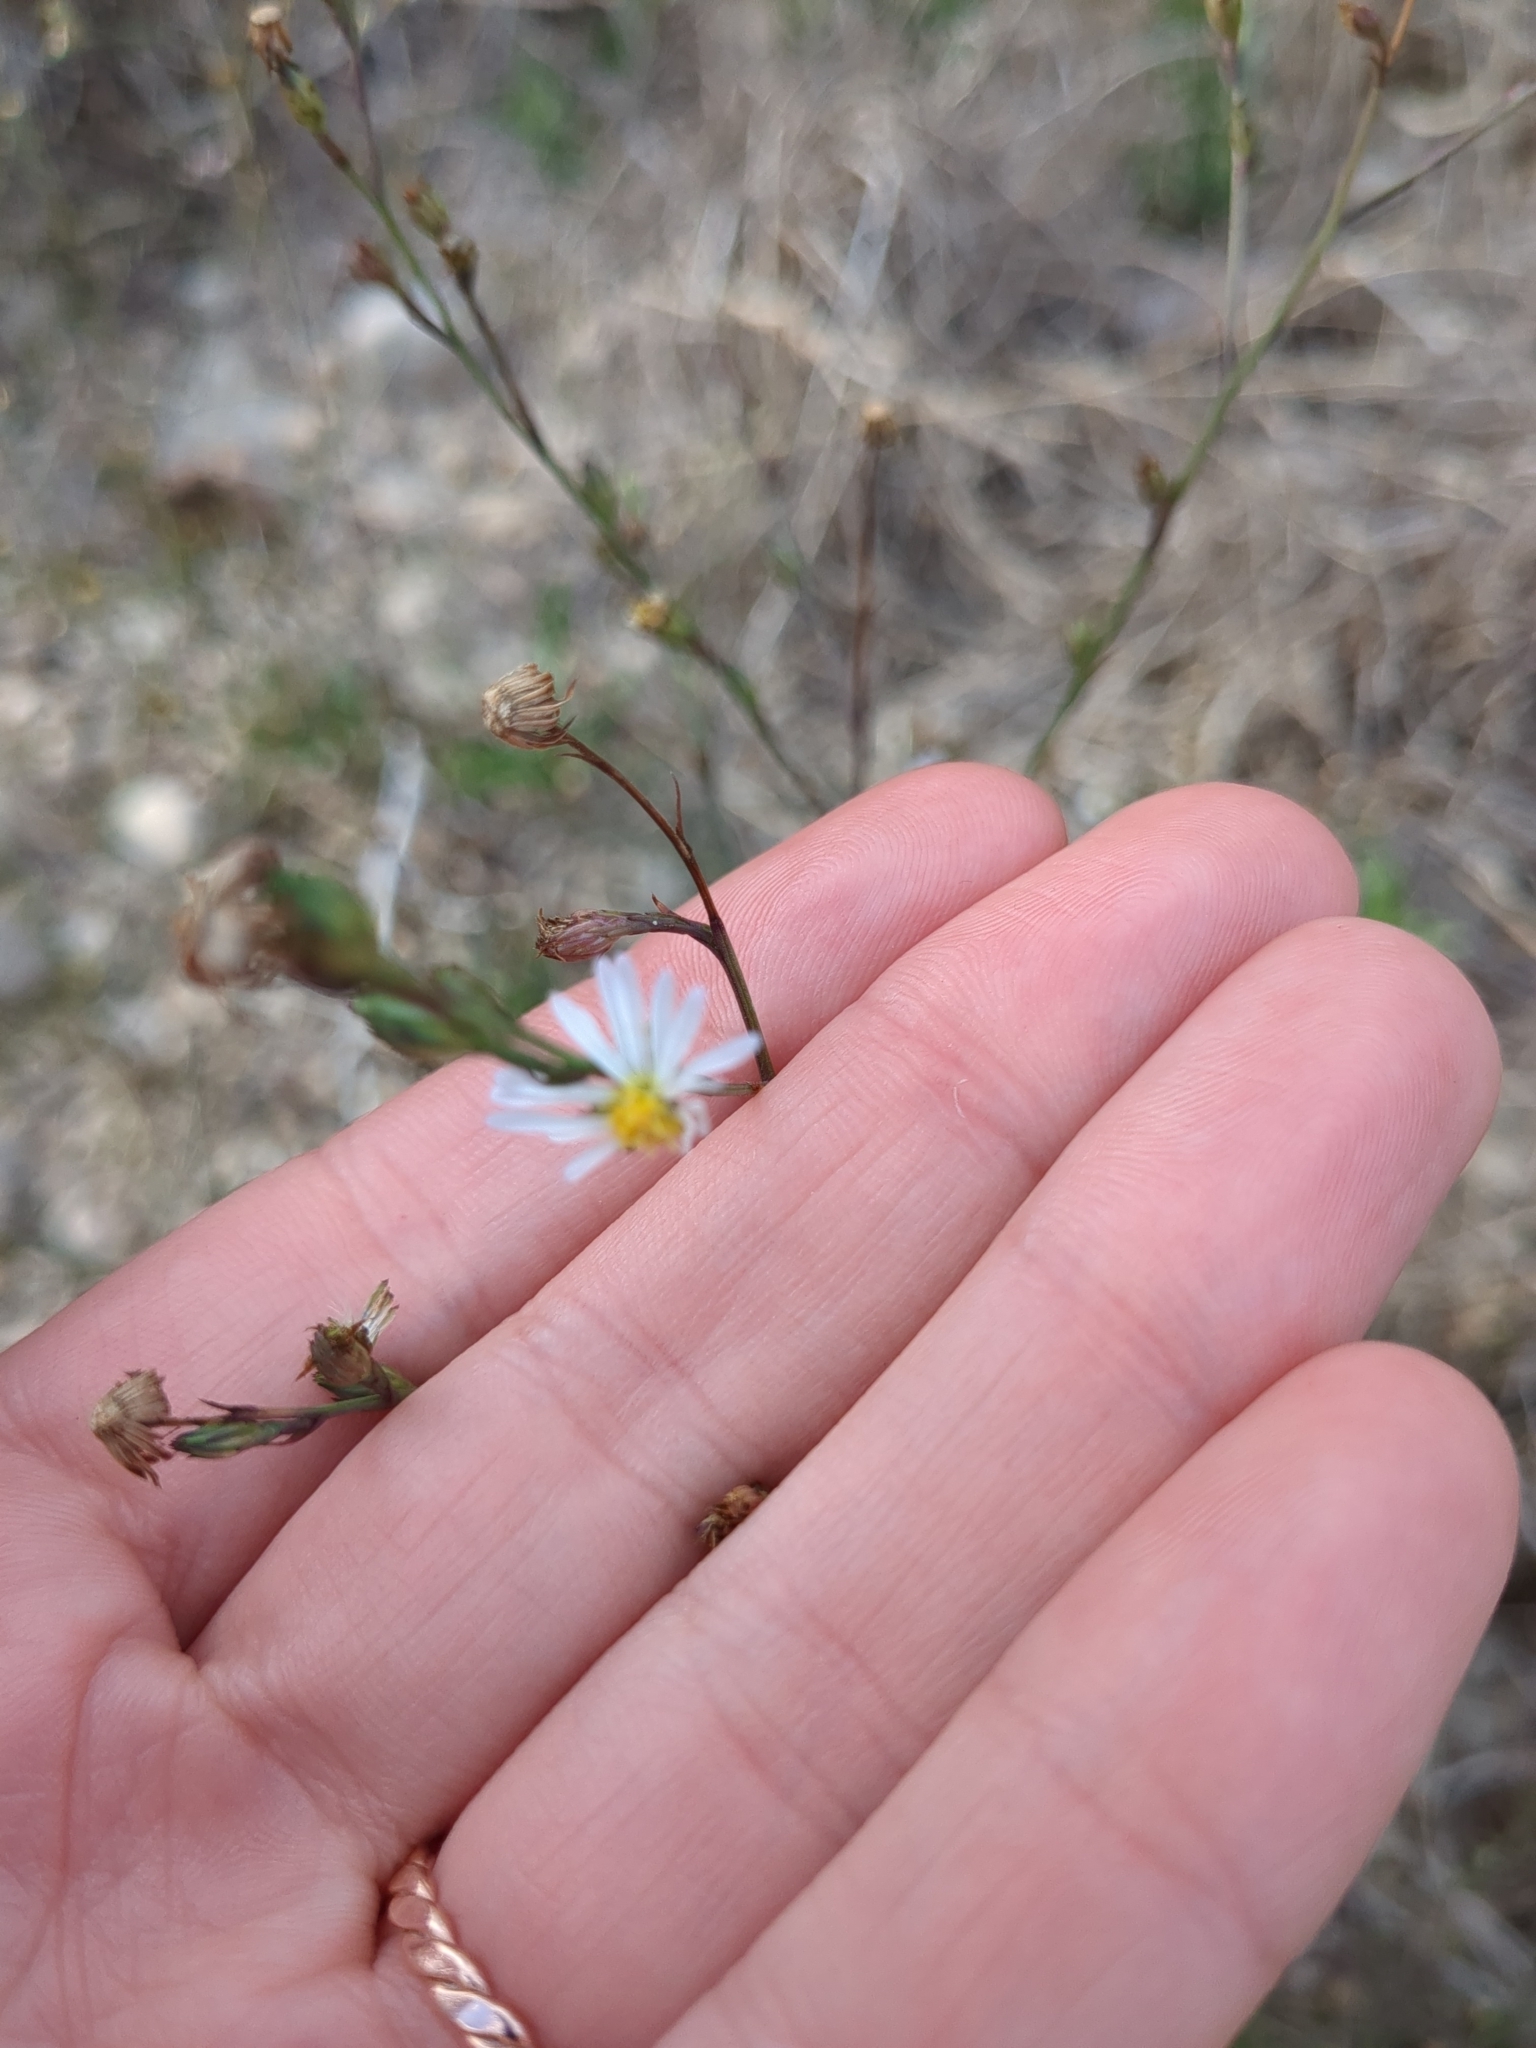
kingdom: Plantae
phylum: Tracheophyta
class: Magnoliopsida
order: Asterales
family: Asteraceae
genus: Symphyotrichum
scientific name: Symphyotrichum divaricatum
